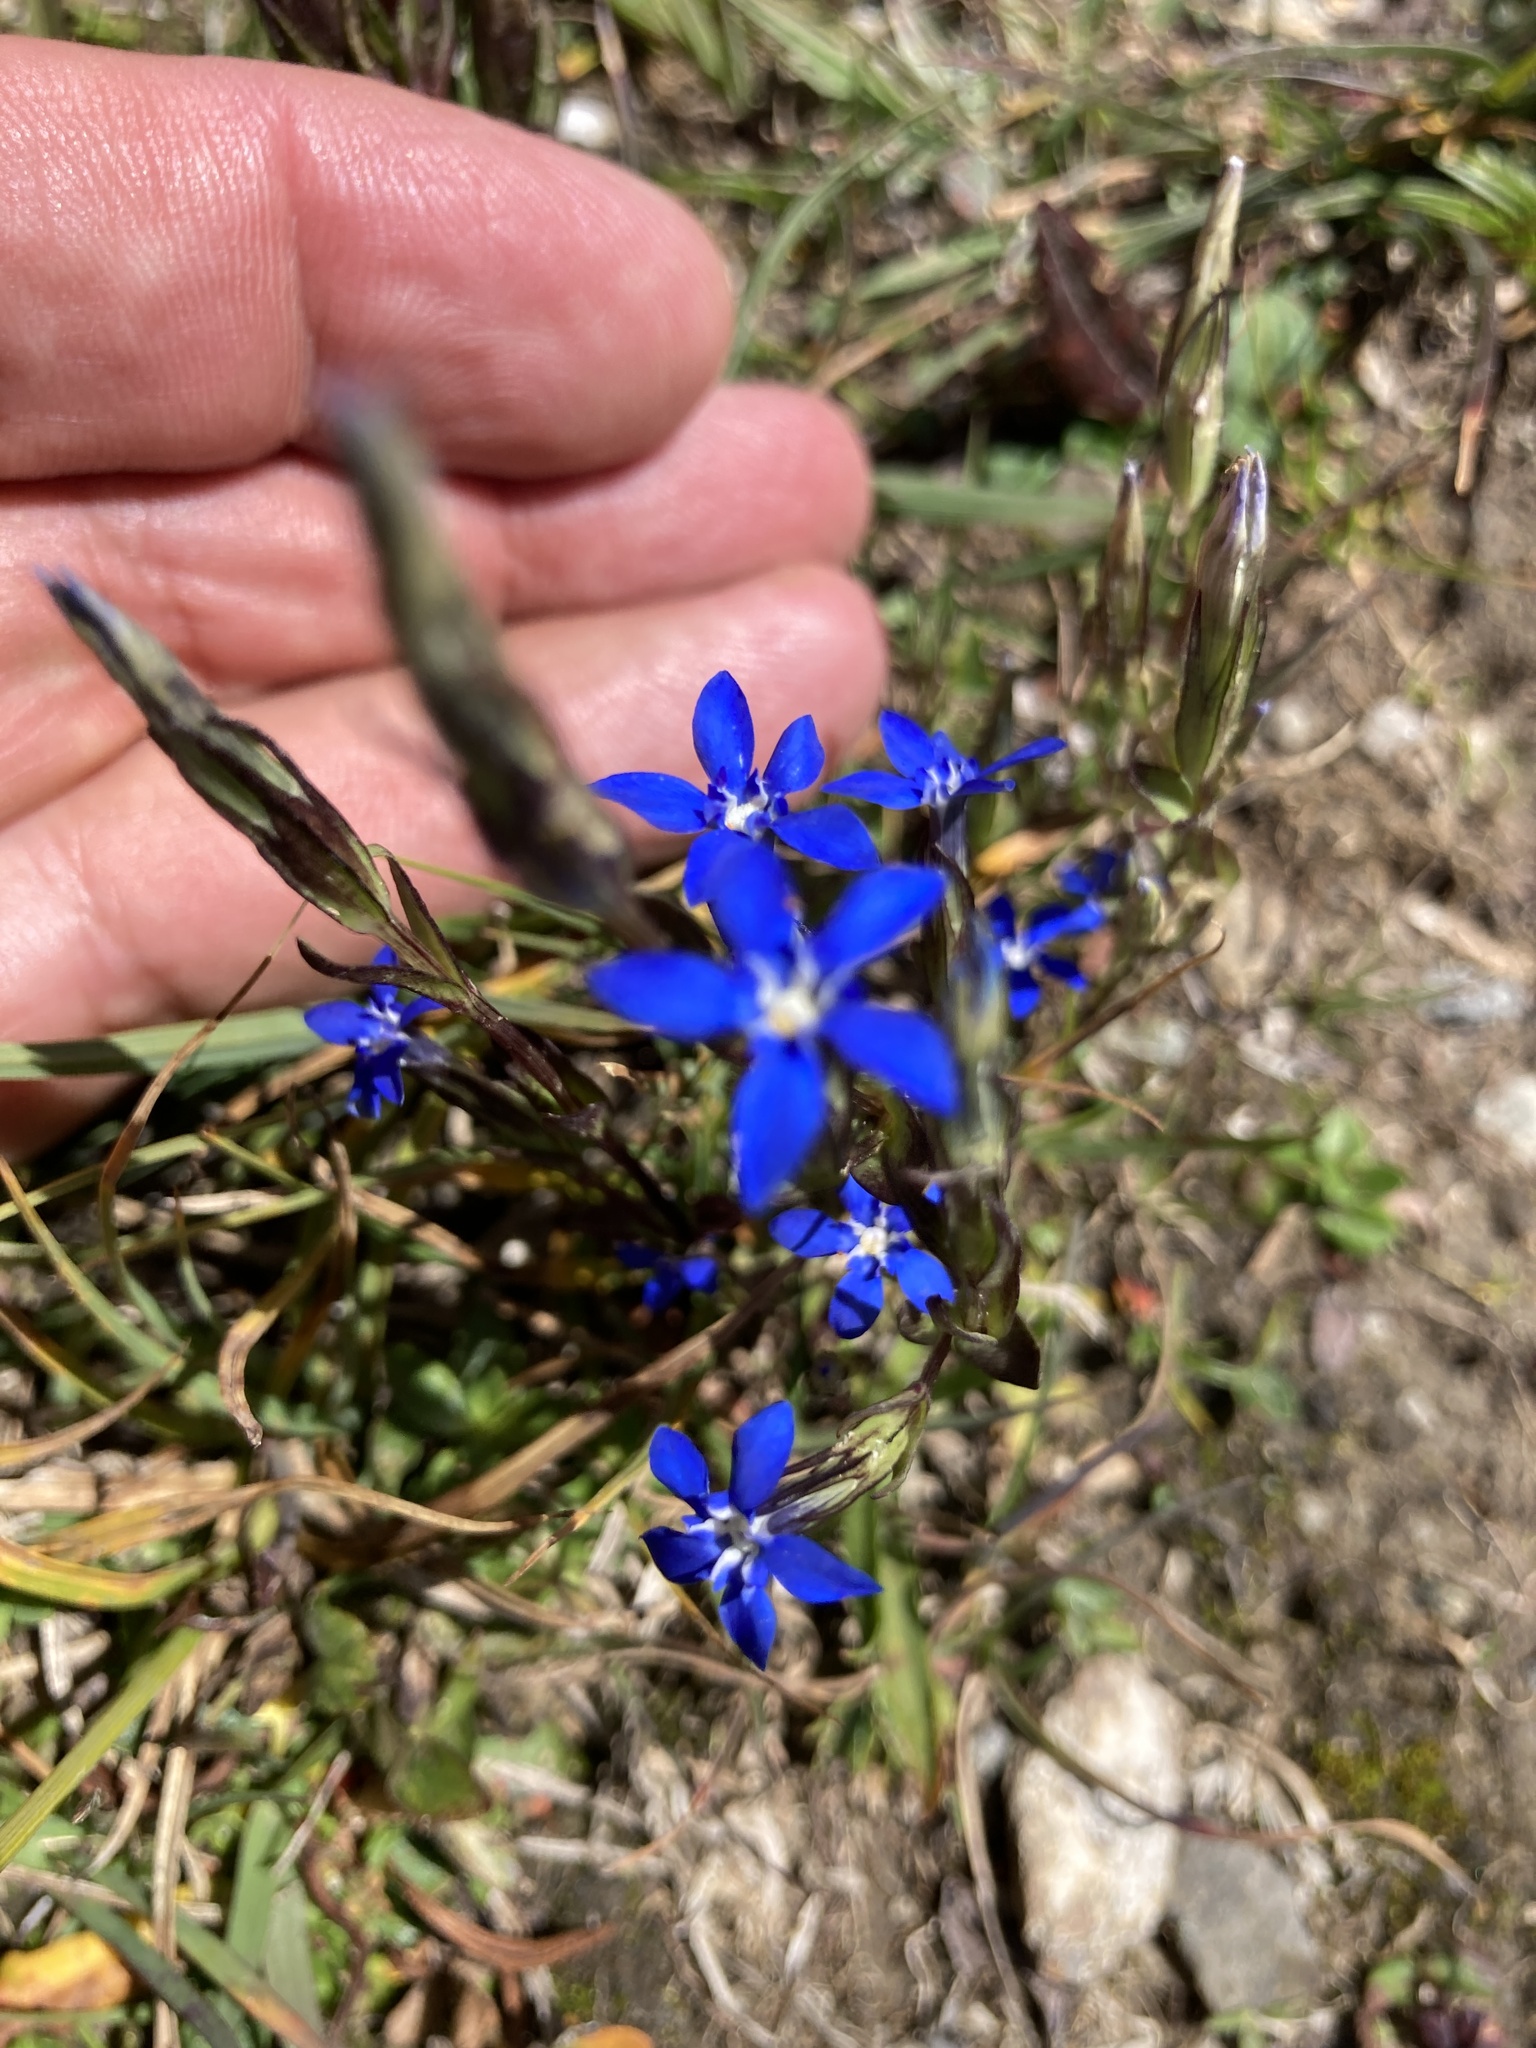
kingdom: Plantae
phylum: Tracheophyta
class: Magnoliopsida
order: Gentianales
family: Gentianaceae
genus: Gentiana
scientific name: Gentiana nivalis
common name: Alpine gentian
